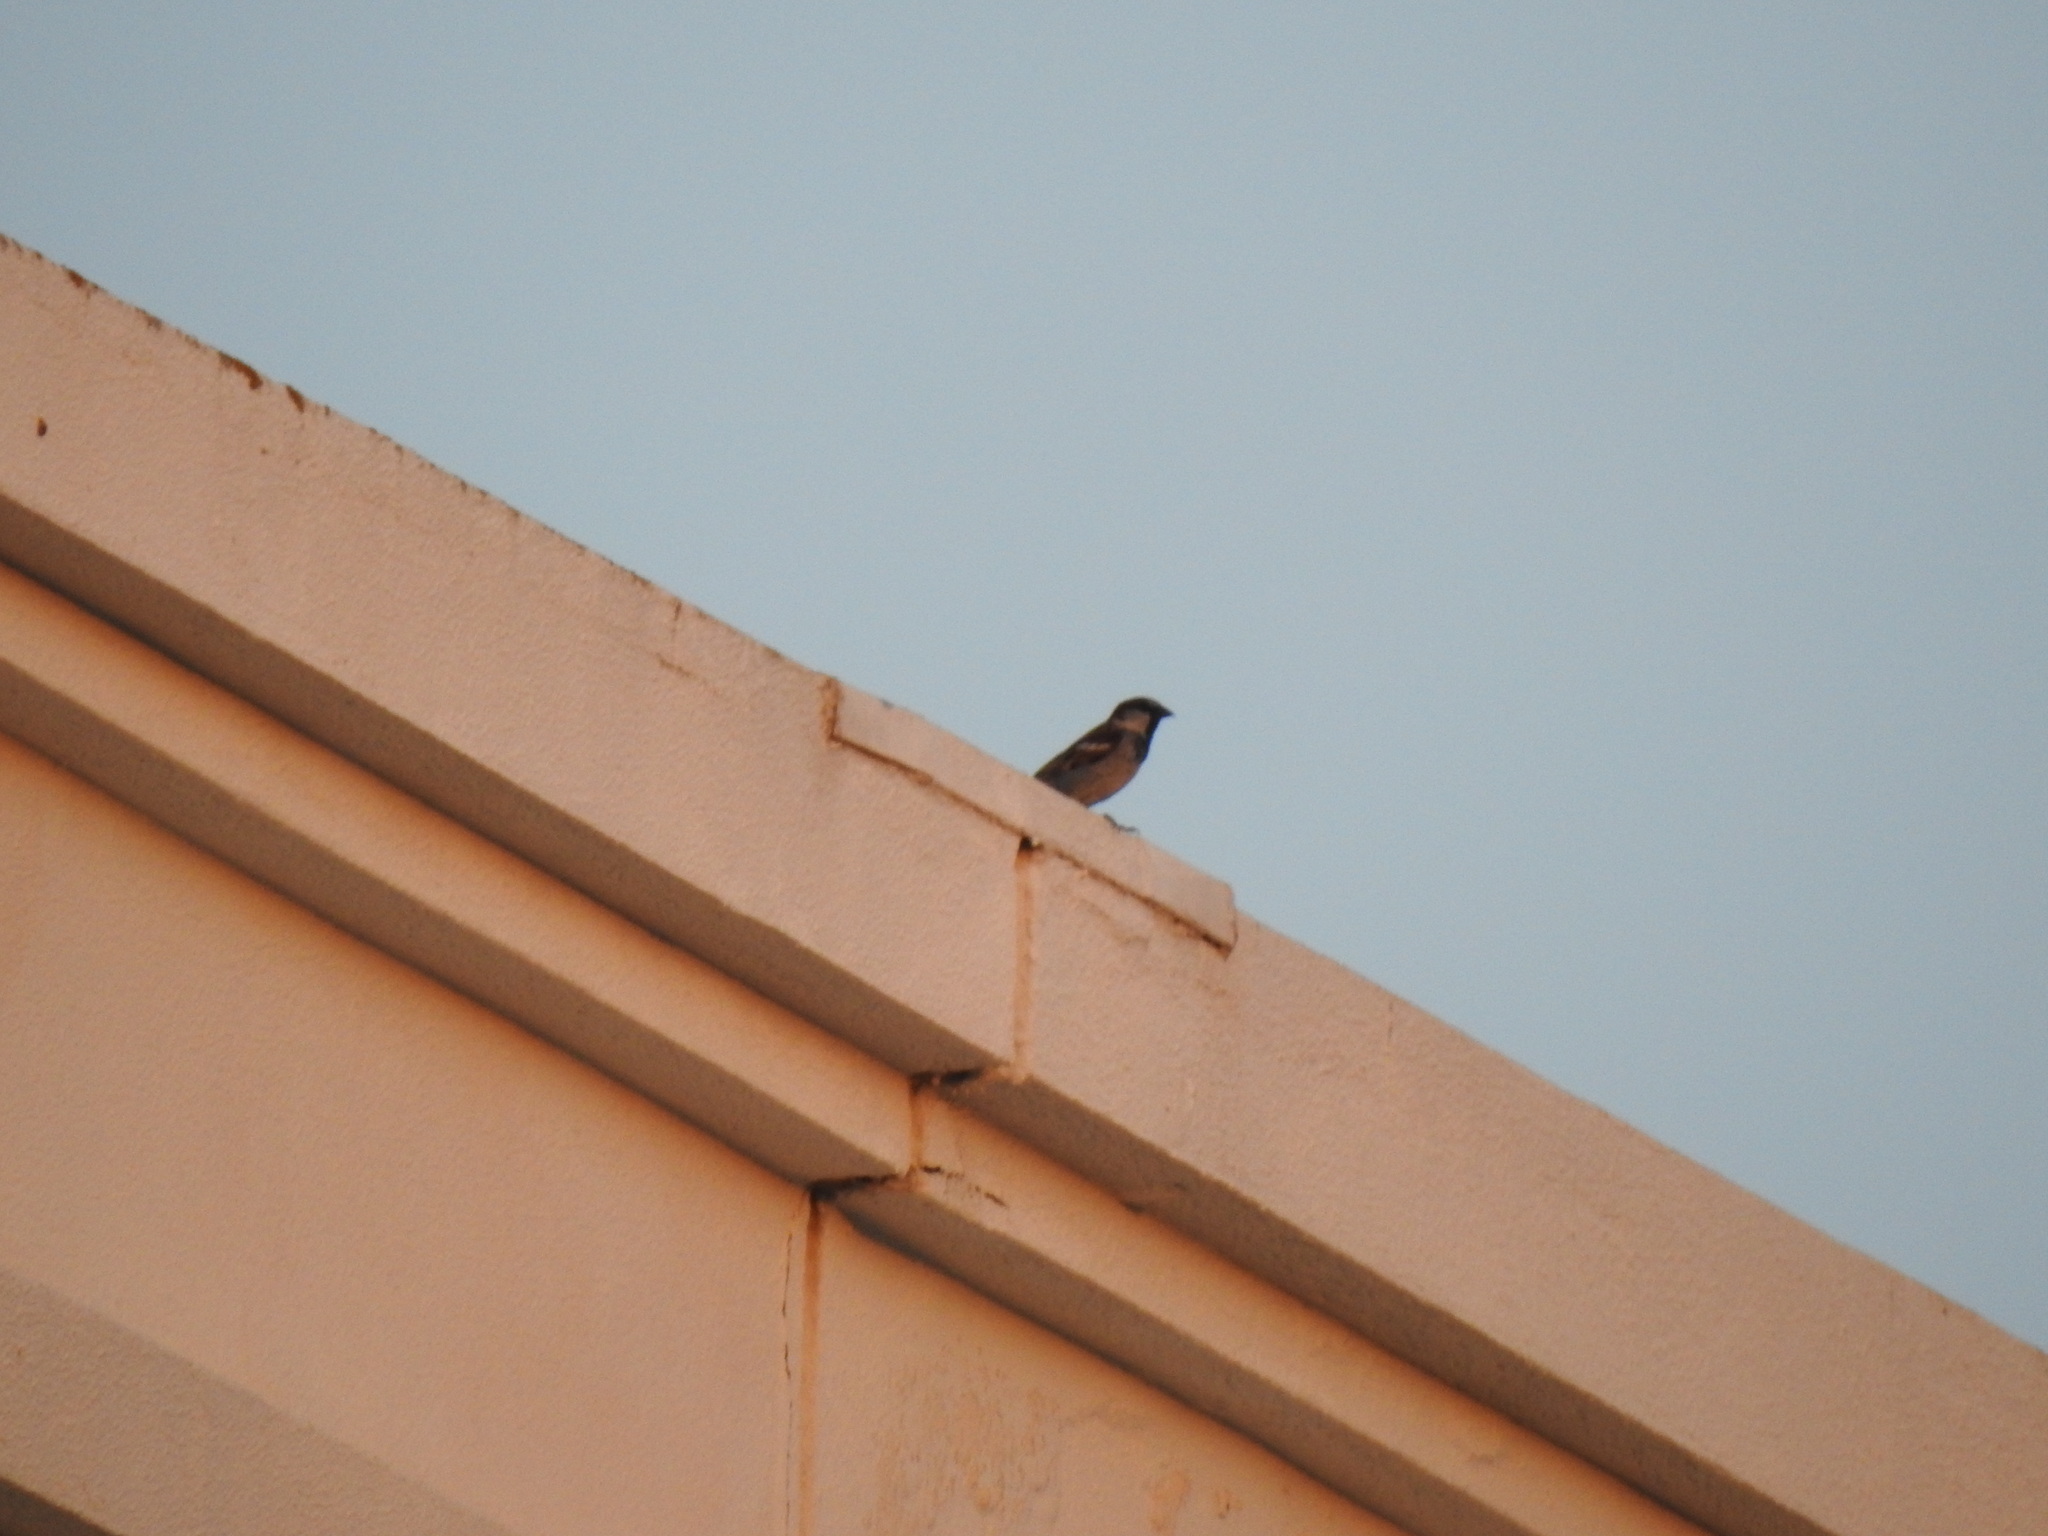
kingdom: Animalia
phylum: Chordata
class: Aves
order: Passeriformes
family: Passeridae
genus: Passer
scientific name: Passer domesticus
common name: House sparrow
